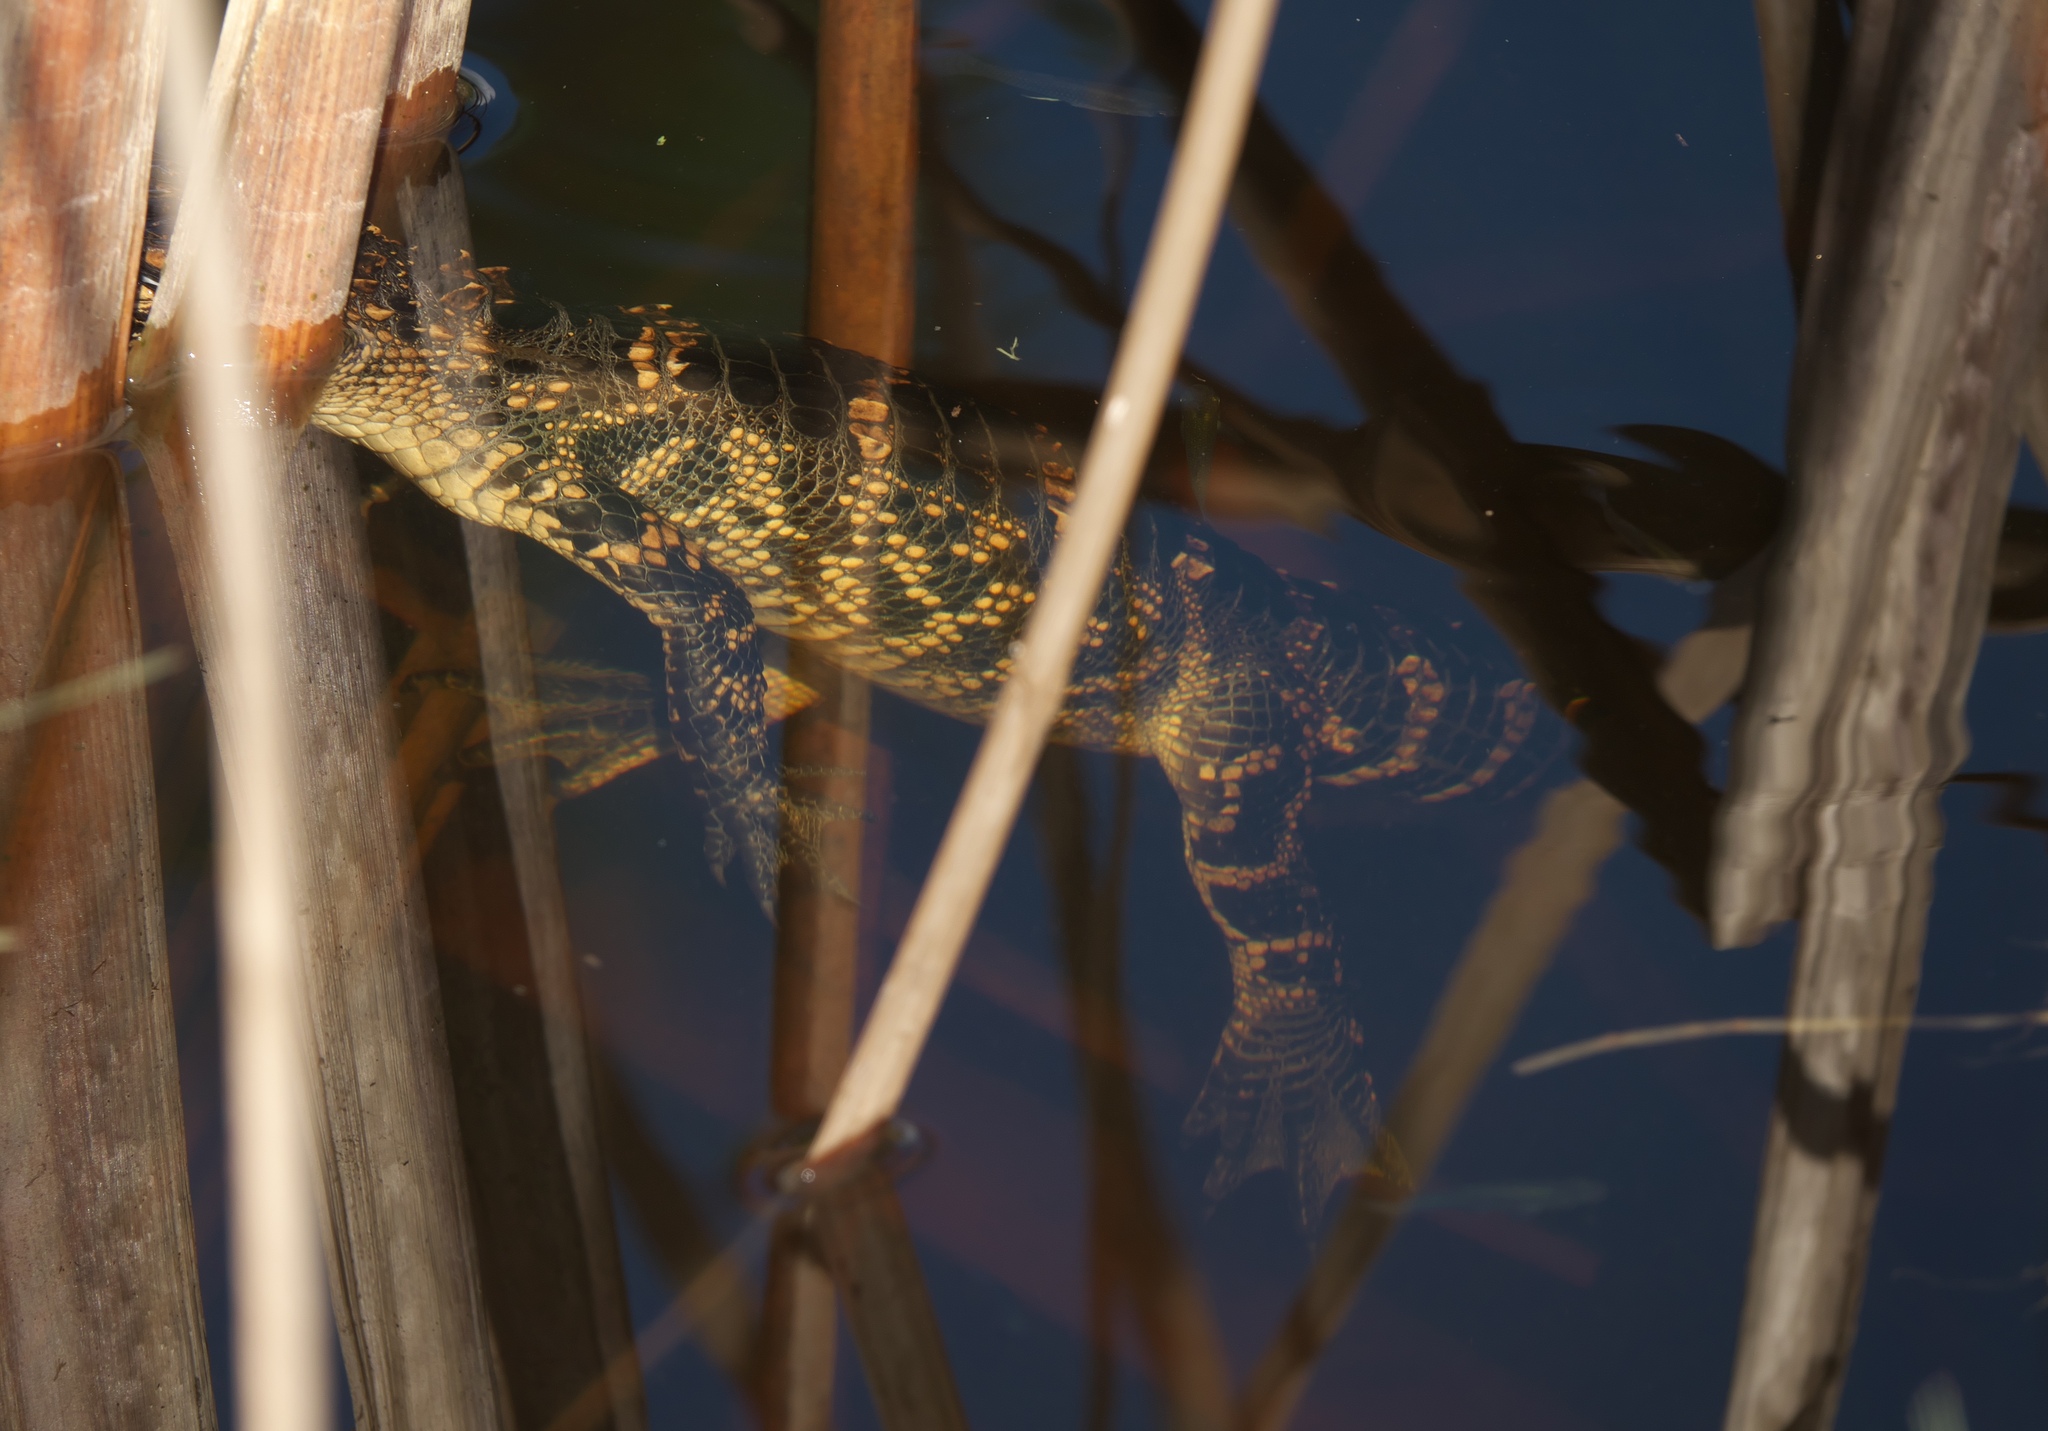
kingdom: Animalia
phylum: Chordata
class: Crocodylia
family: Alligatoridae
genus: Alligator
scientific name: Alligator mississippiensis
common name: American alligator
